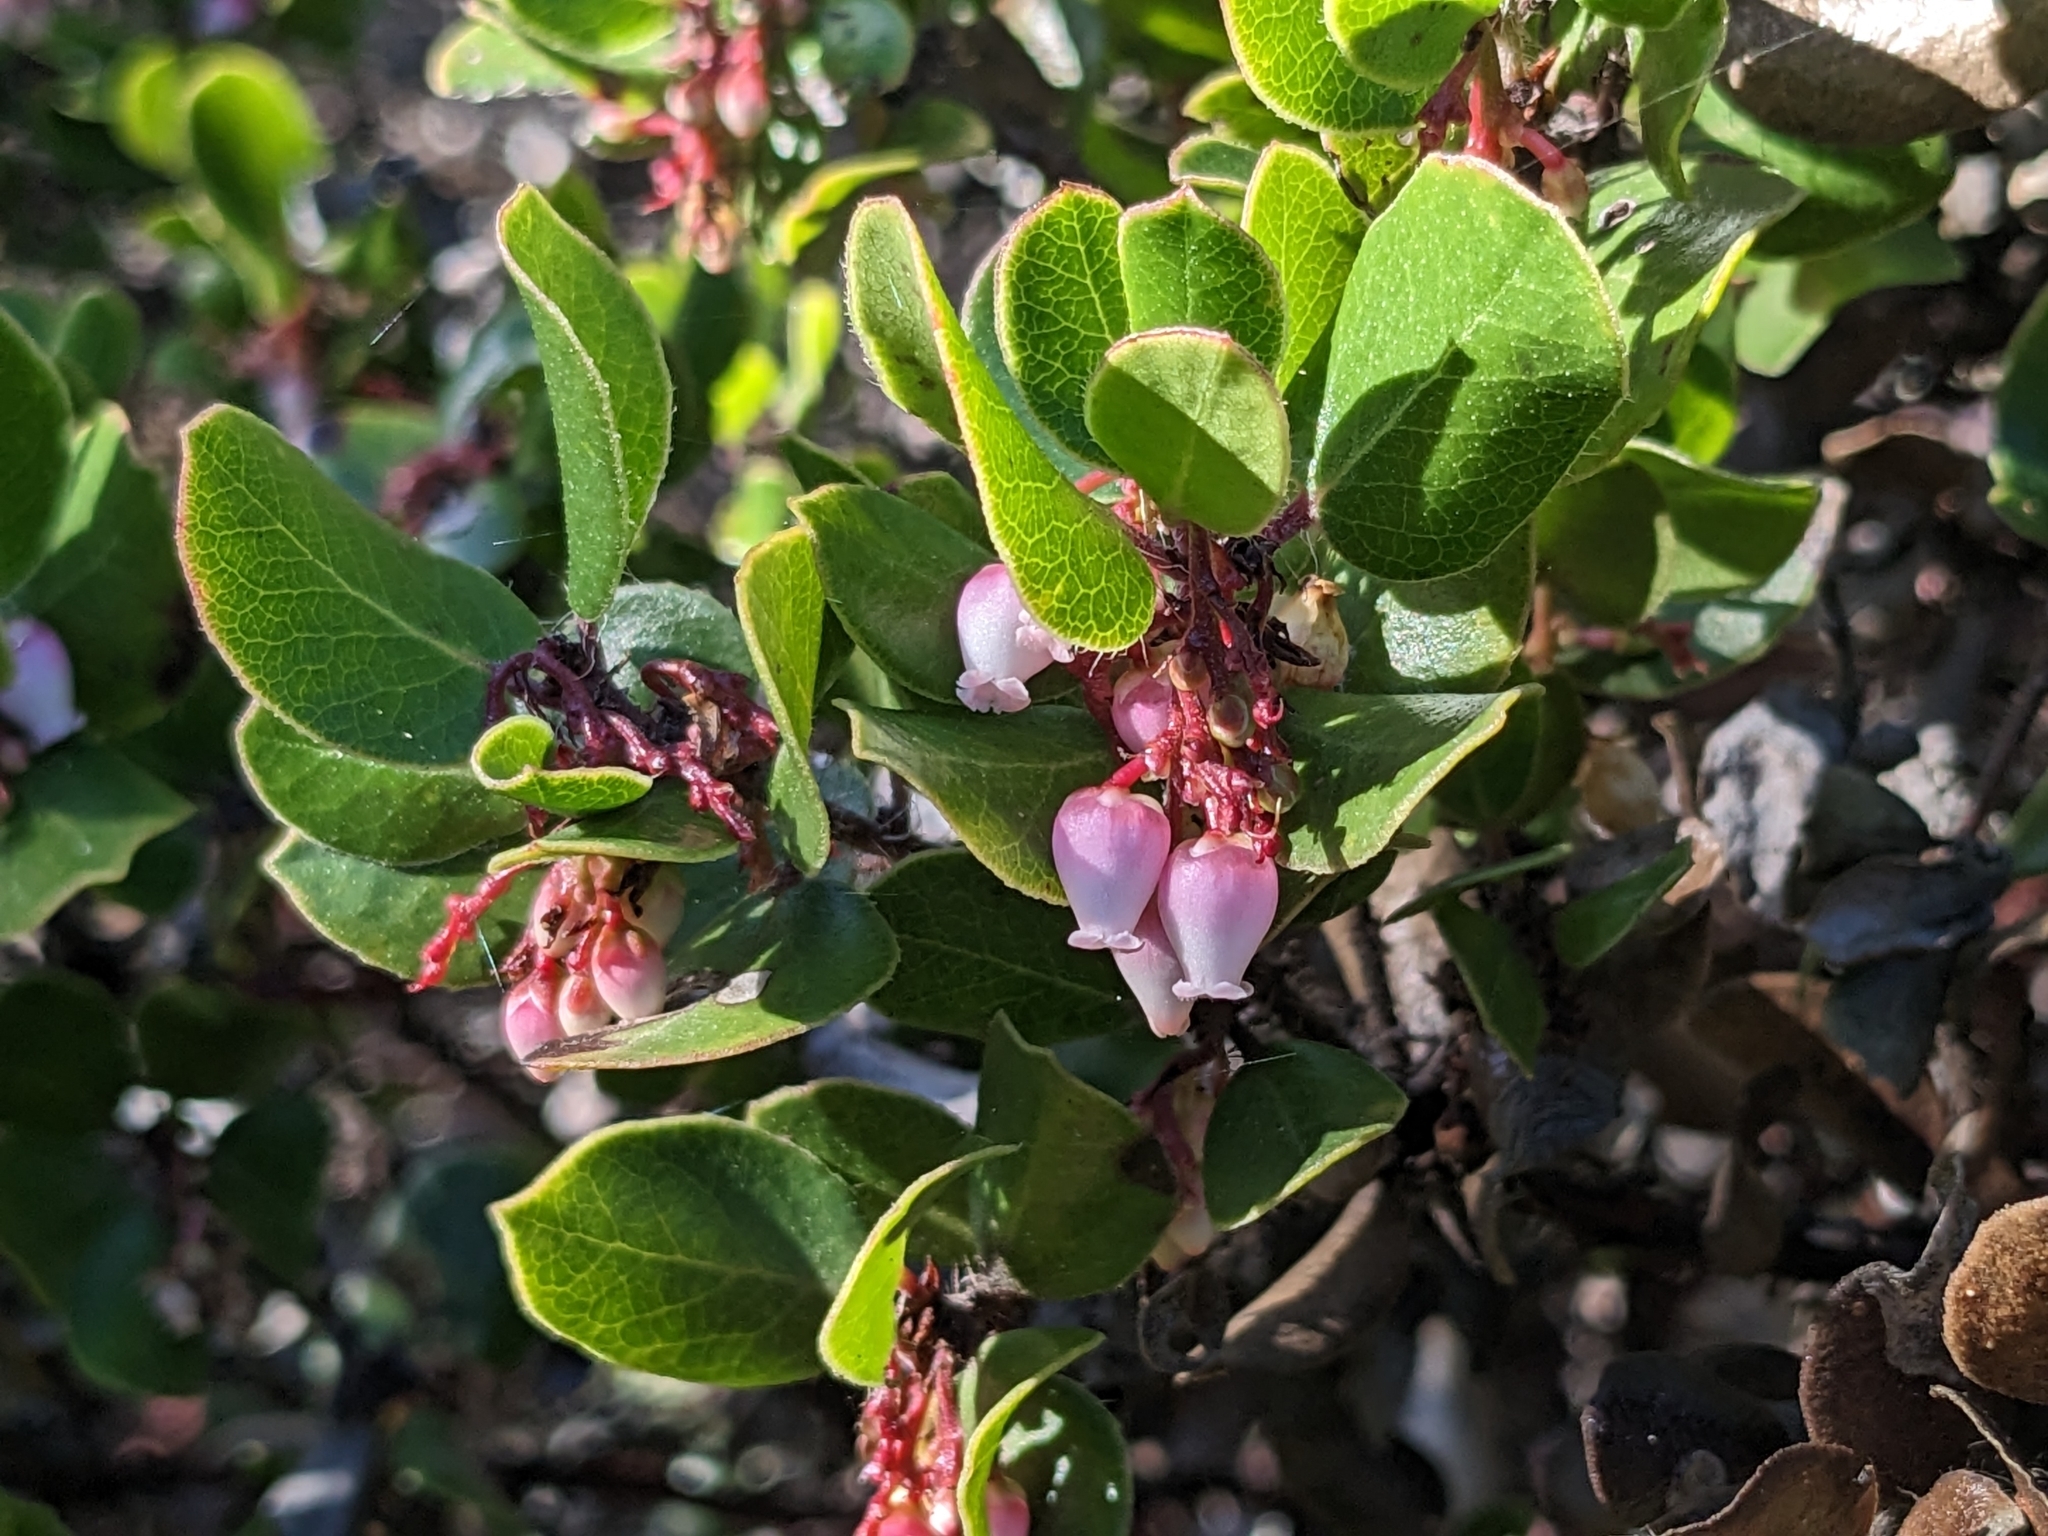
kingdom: Plantae
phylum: Tracheophyta
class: Magnoliopsida
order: Ericales
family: Ericaceae
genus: Arctostaphylos
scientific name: Arctostaphylos nummularia
